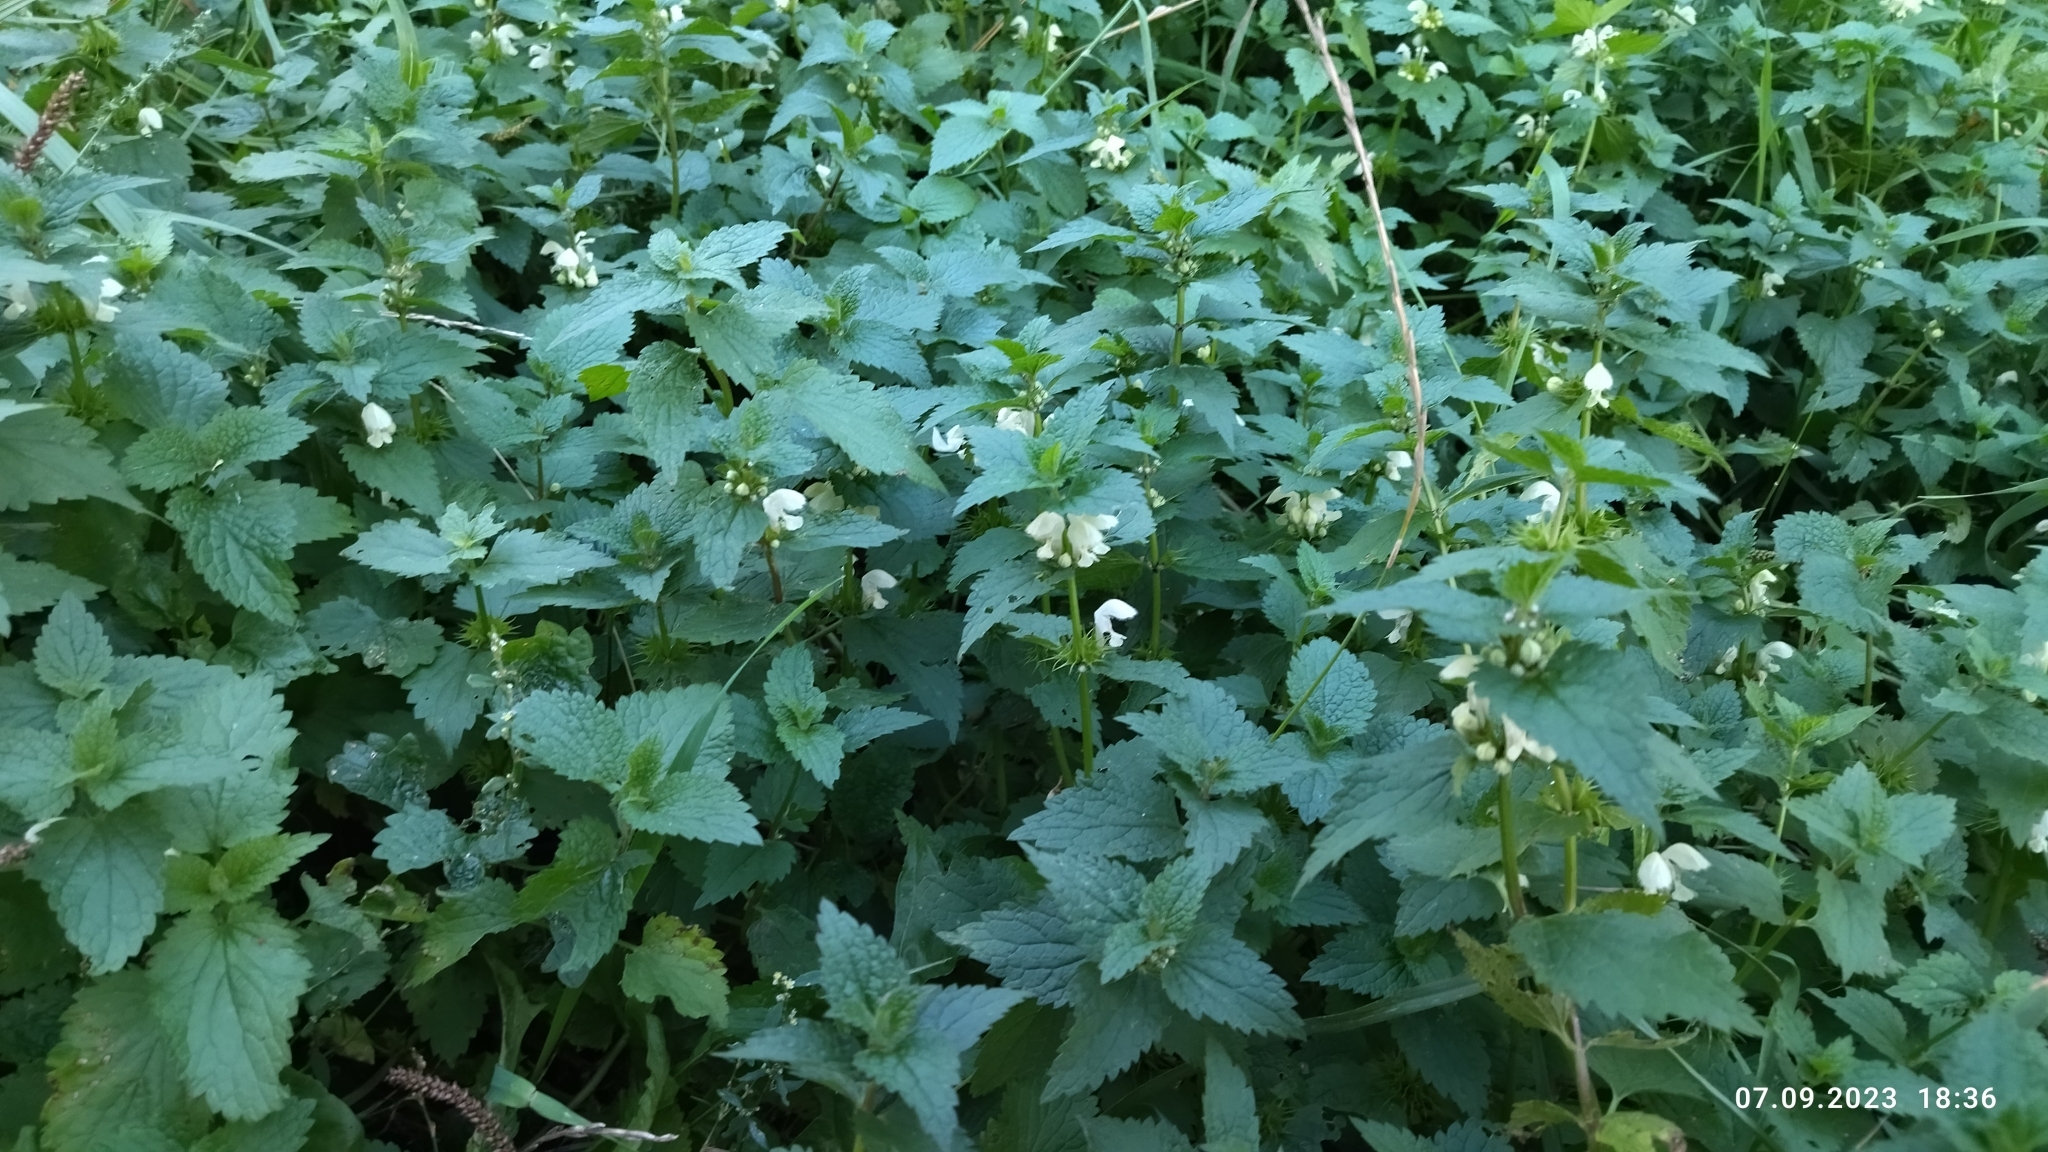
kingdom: Plantae
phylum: Tracheophyta
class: Magnoliopsida
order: Lamiales
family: Lamiaceae
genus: Lamium
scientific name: Lamium album
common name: White dead-nettle
